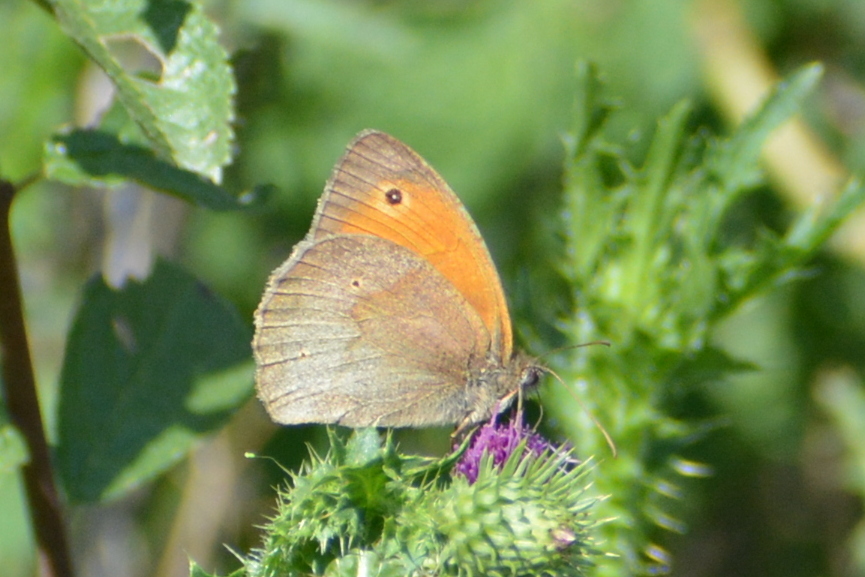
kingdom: Animalia
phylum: Arthropoda
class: Insecta
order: Lepidoptera
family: Nymphalidae
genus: Maniola
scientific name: Maniola jurtina
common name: Meadow brown
